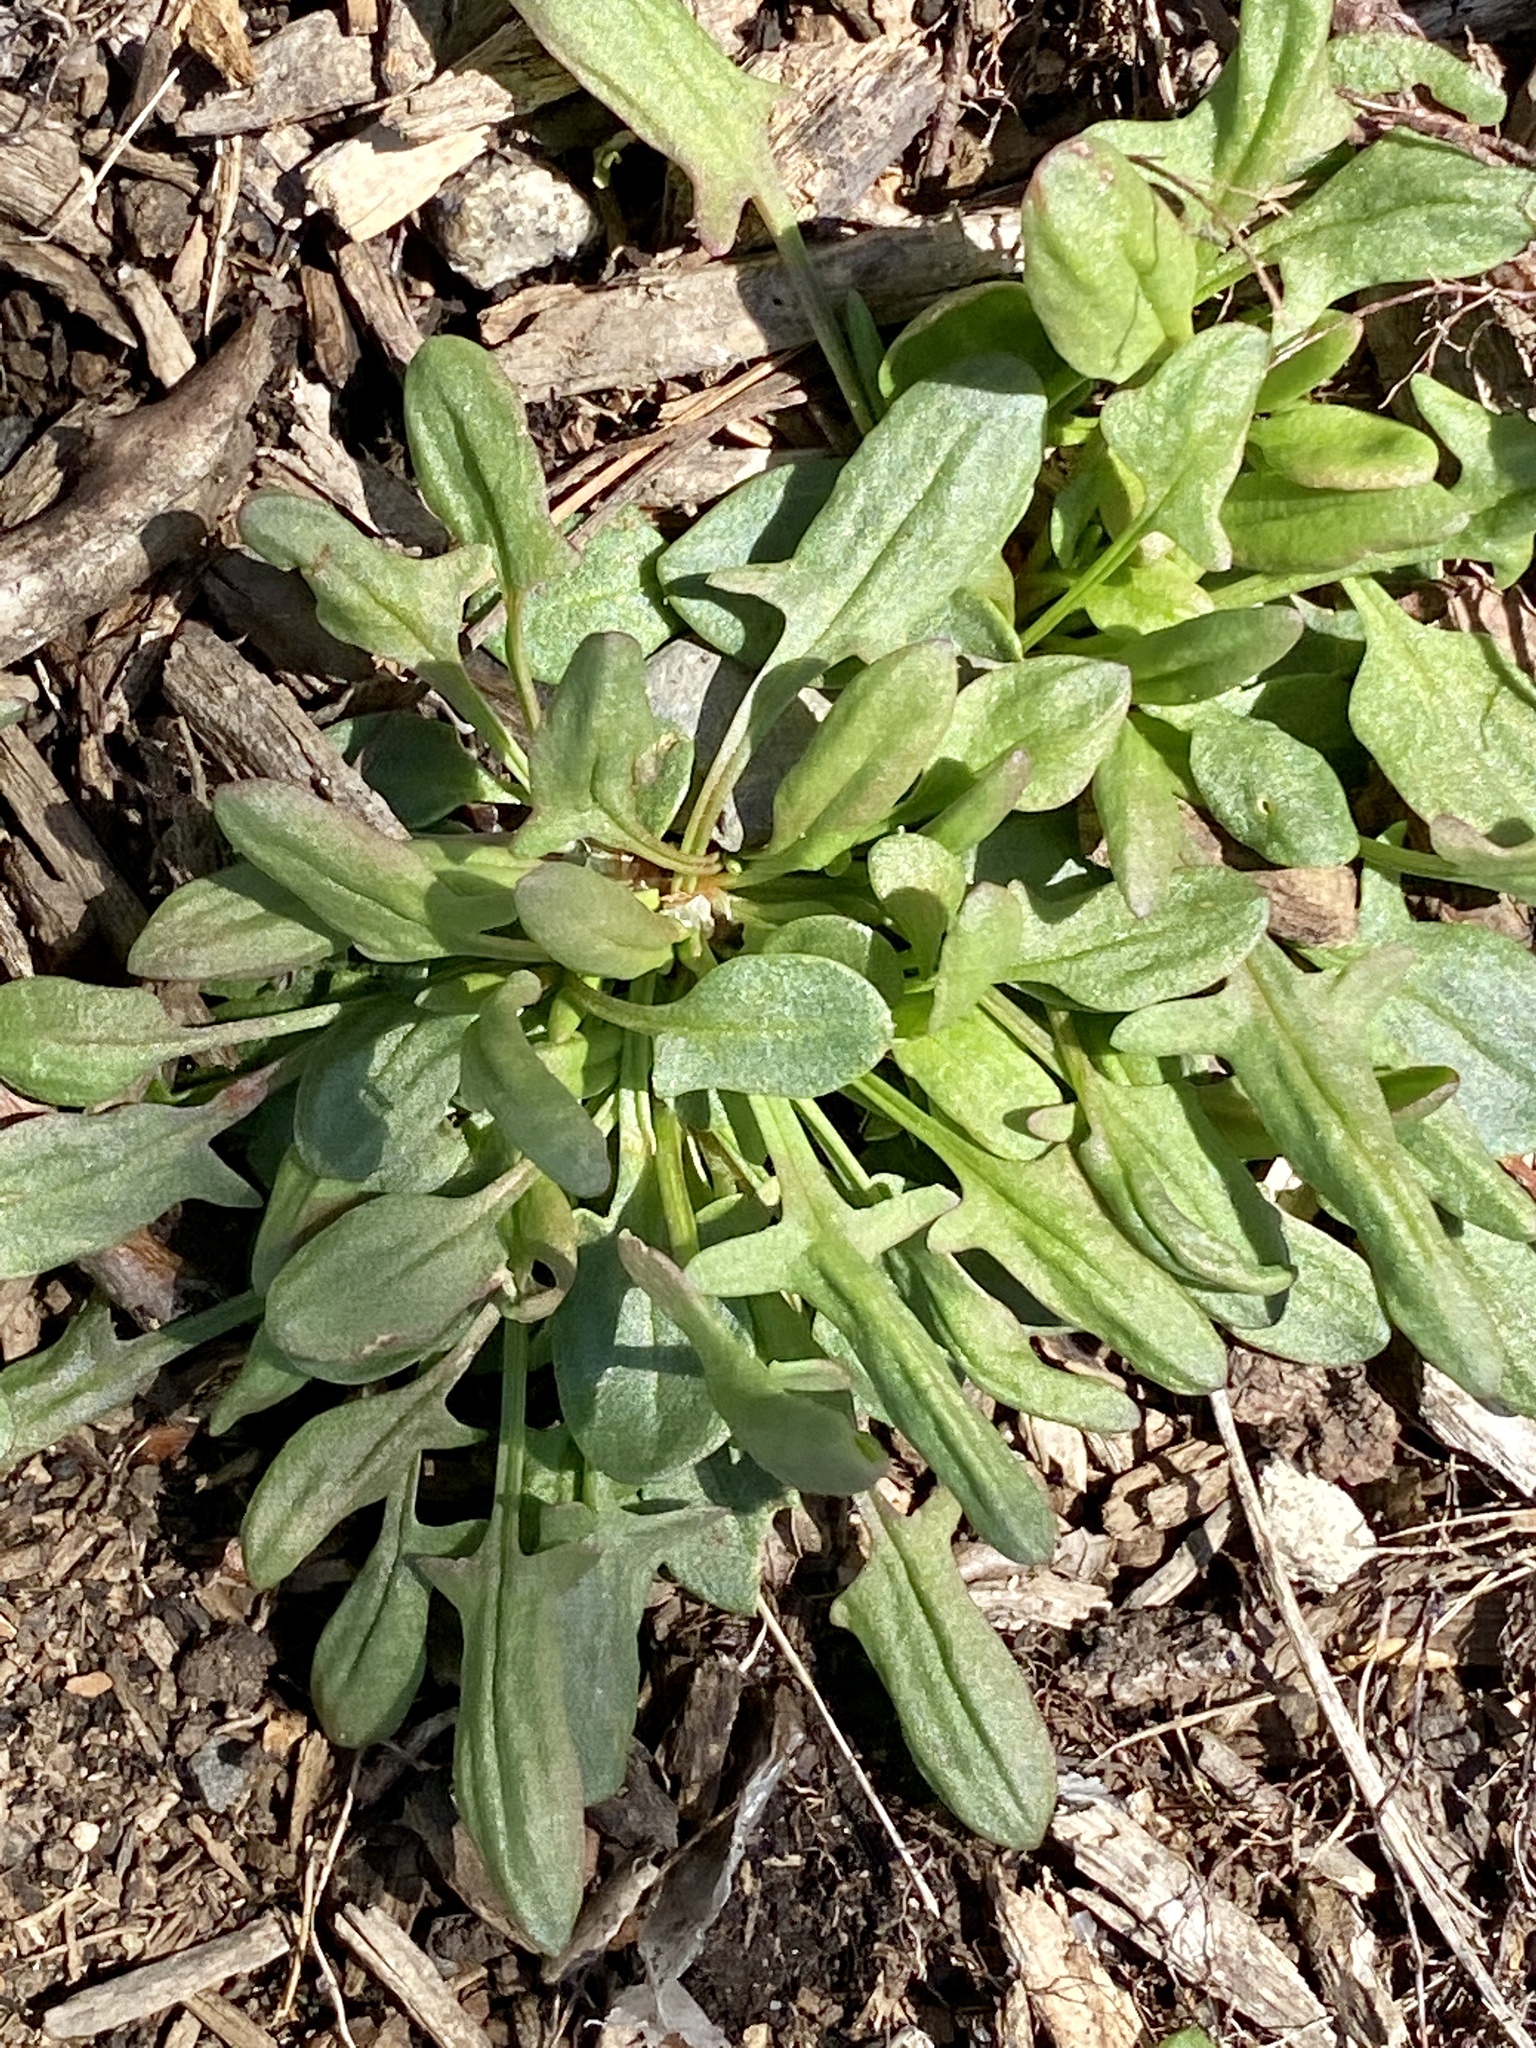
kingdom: Plantae
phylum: Tracheophyta
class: Magnoliopsida
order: Caryophyllales
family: Polygonaceae
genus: Rumex
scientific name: Rumex acetosella
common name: Common sheep sorrel
